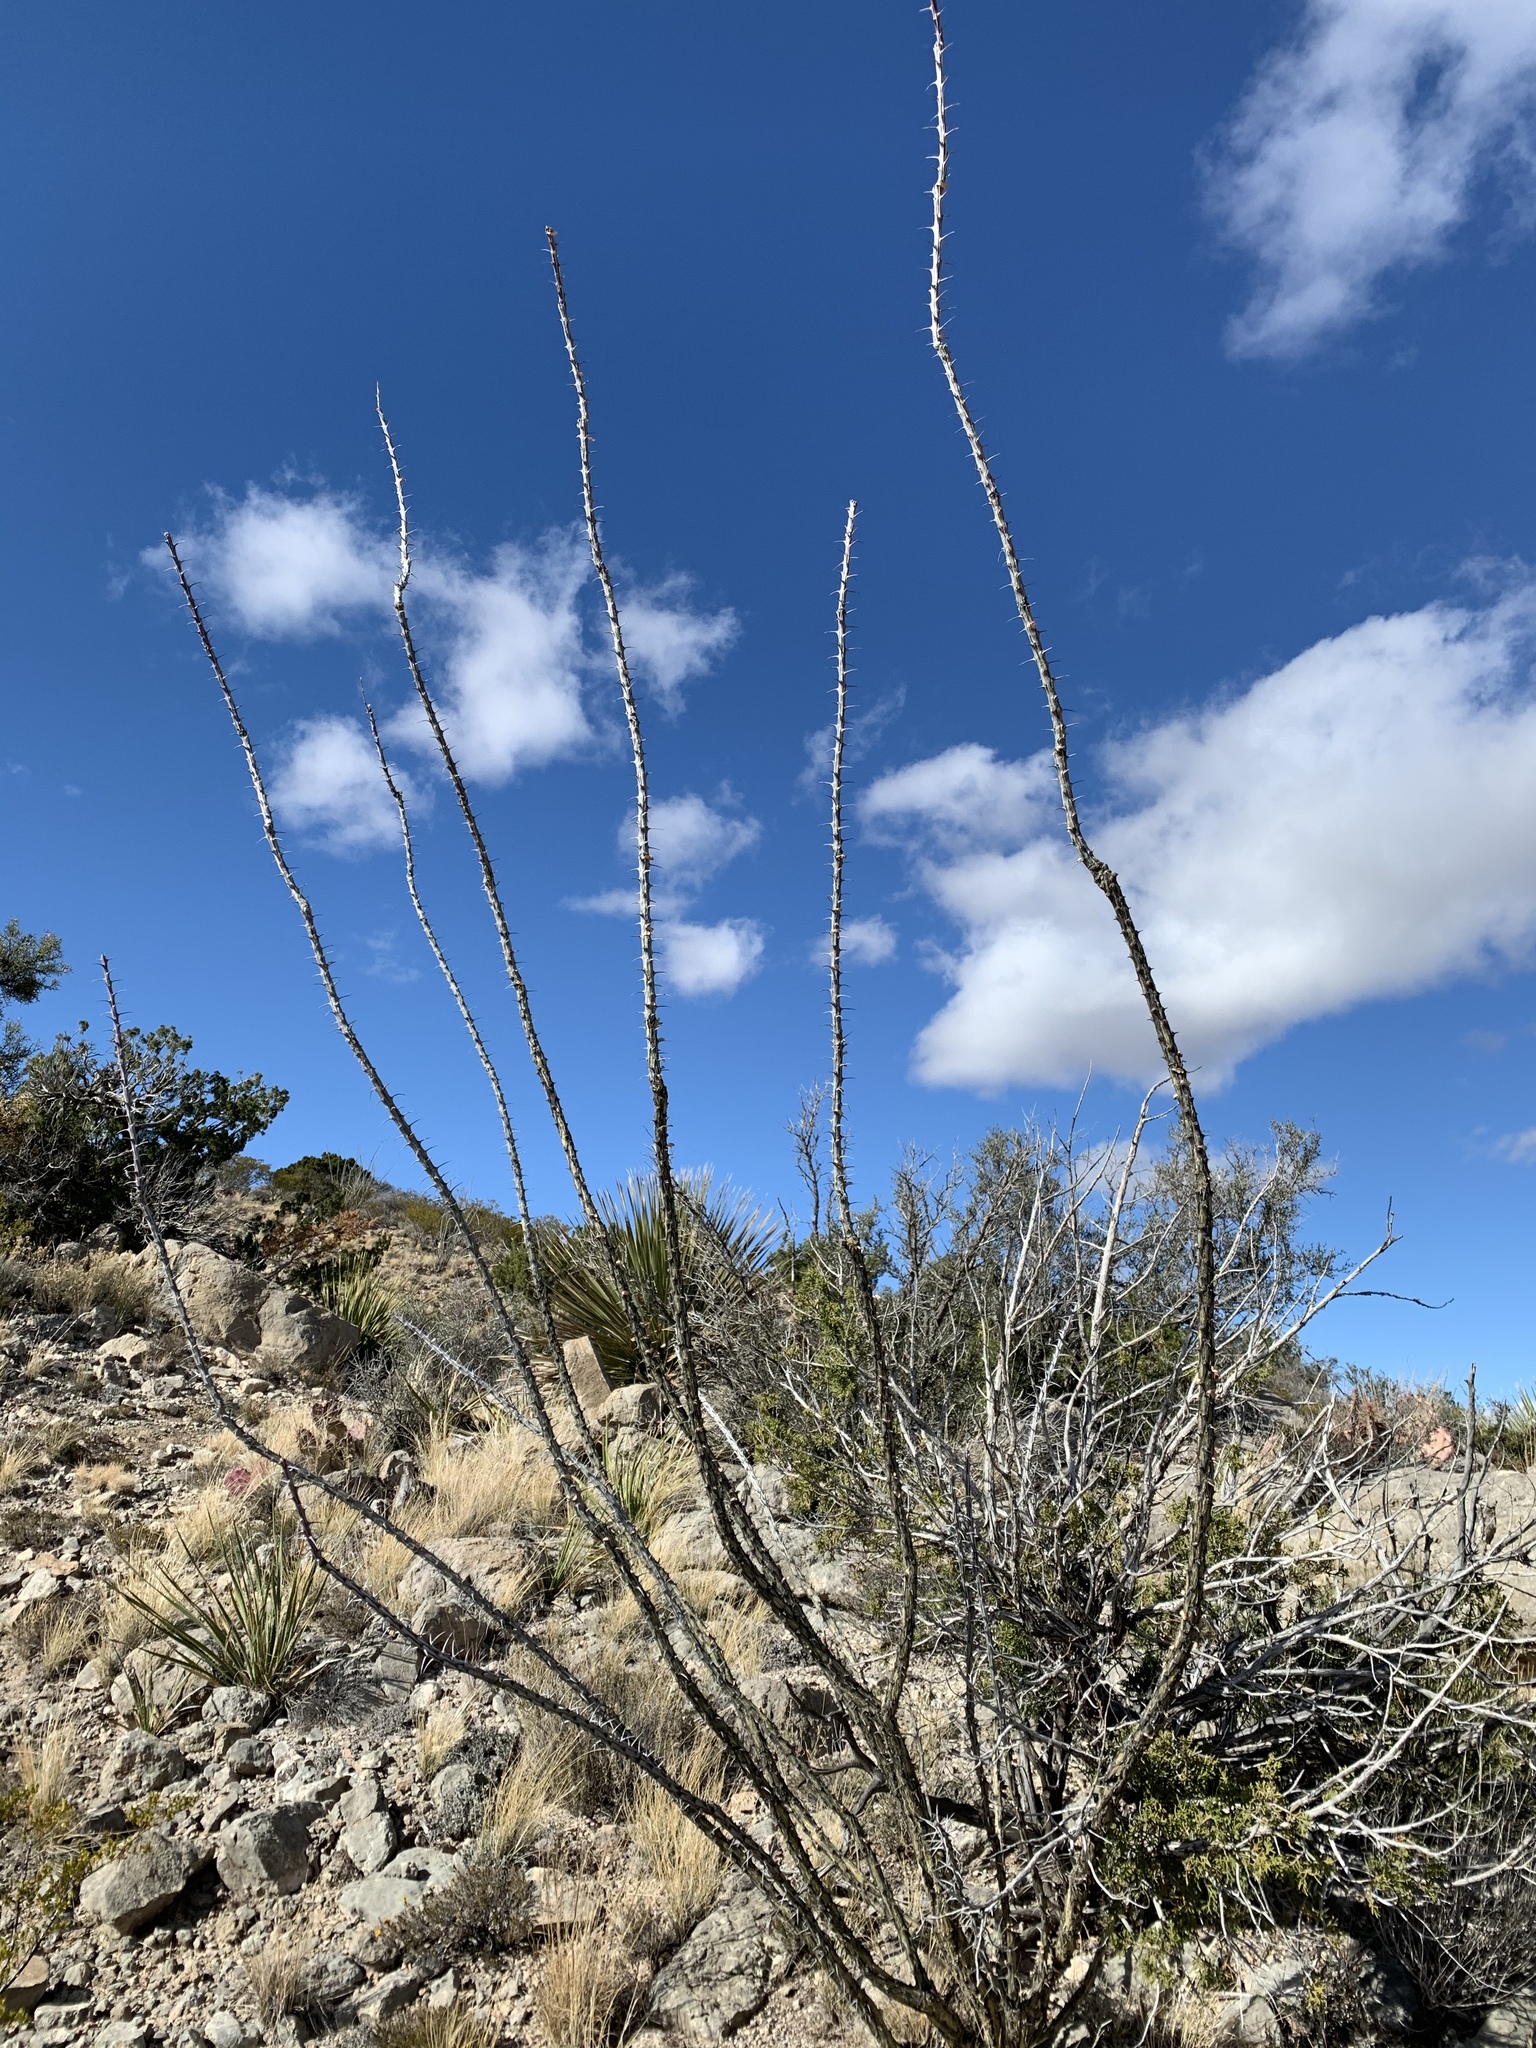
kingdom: Plantae
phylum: Tracheophyta
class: Magnoliopsida
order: Ericales
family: Fouquieriaceae
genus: Fouquieria
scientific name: Fouquieria splendens
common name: Vine-cactus
